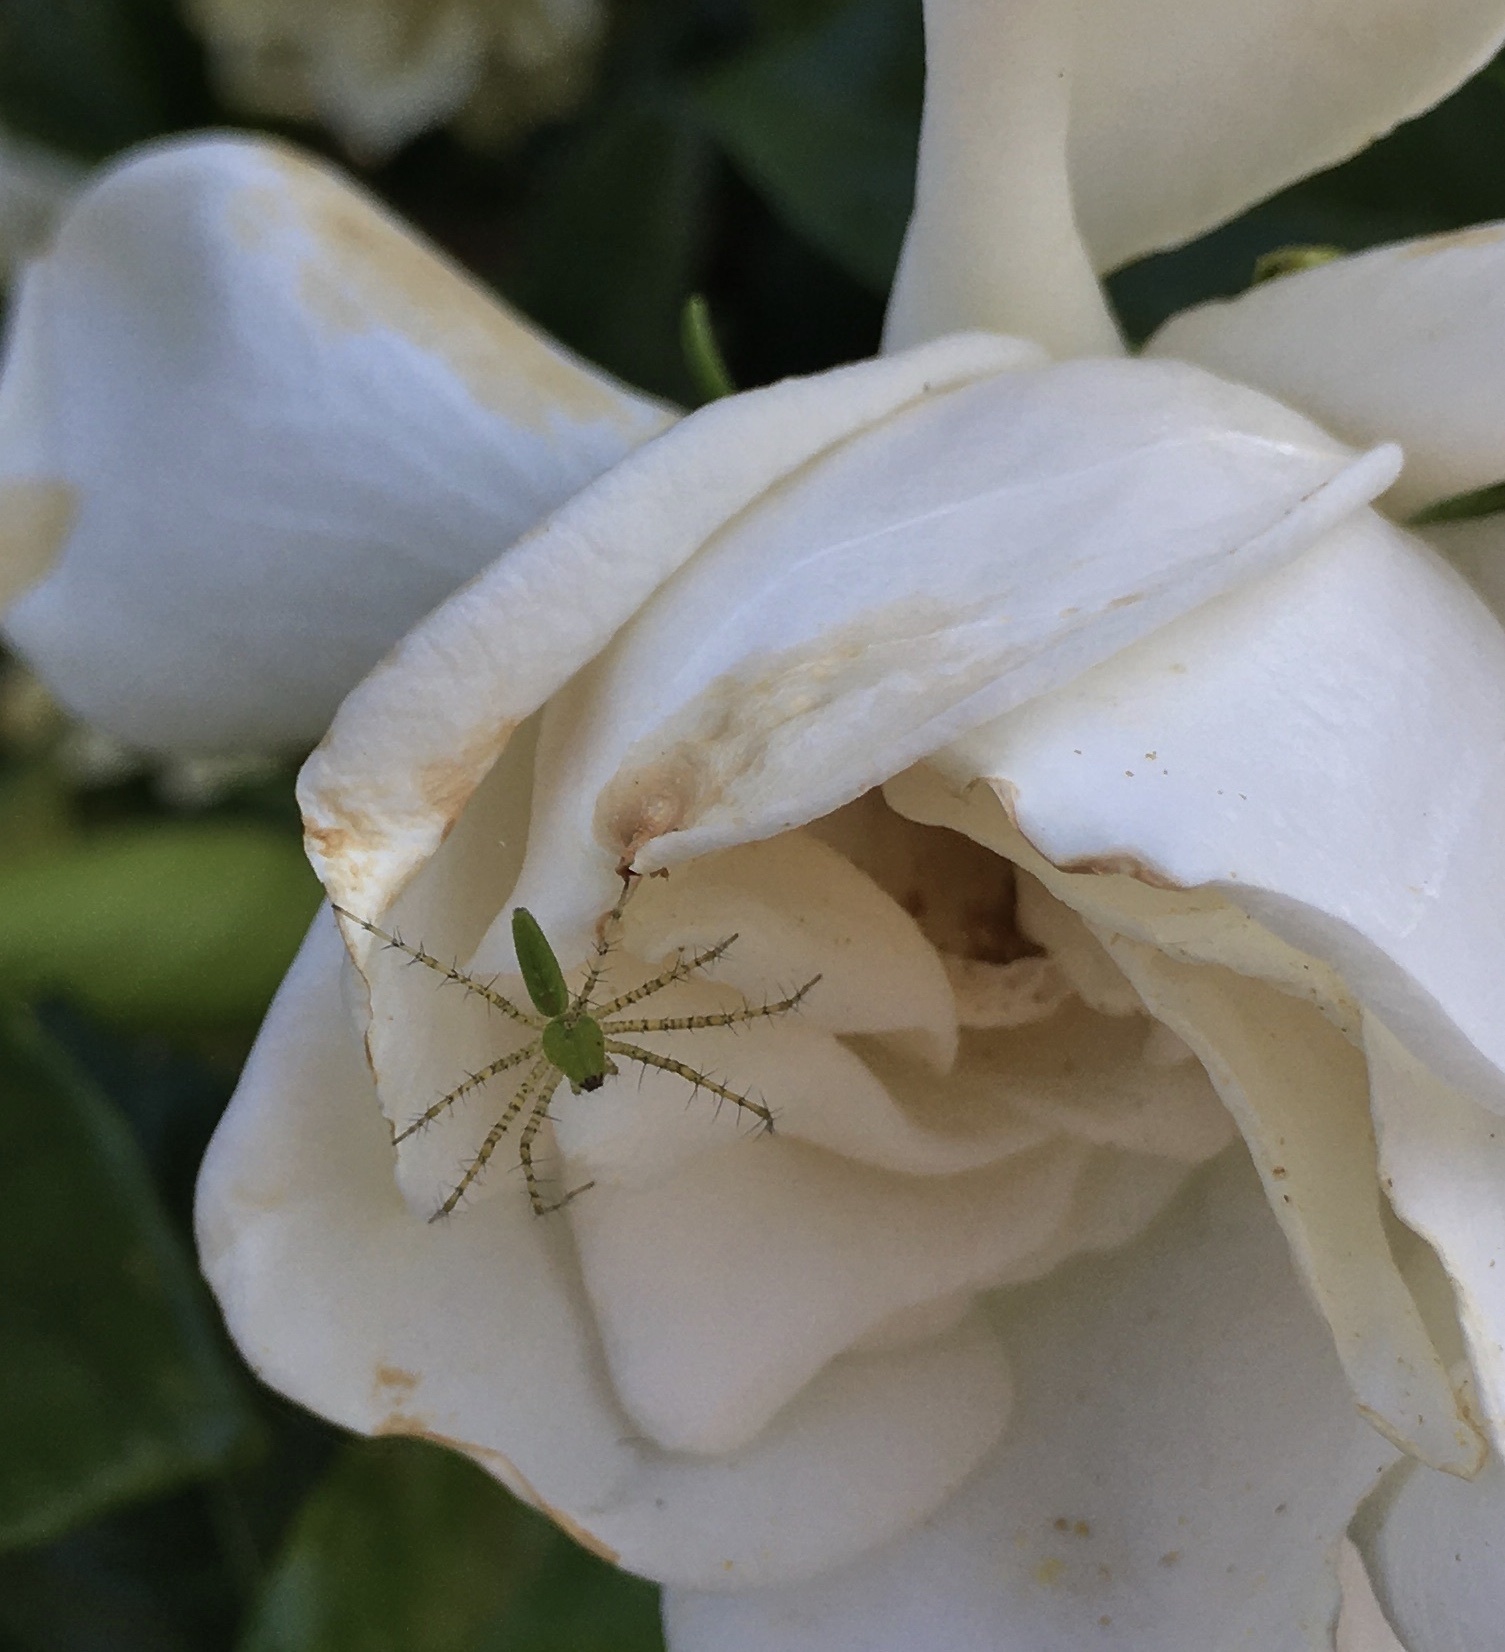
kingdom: Animalia
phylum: Arthropoda
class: Arachnida
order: Araneae
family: Oxyopidae
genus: Peucetia
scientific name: Peucetia viridans
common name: Lynx spiders
